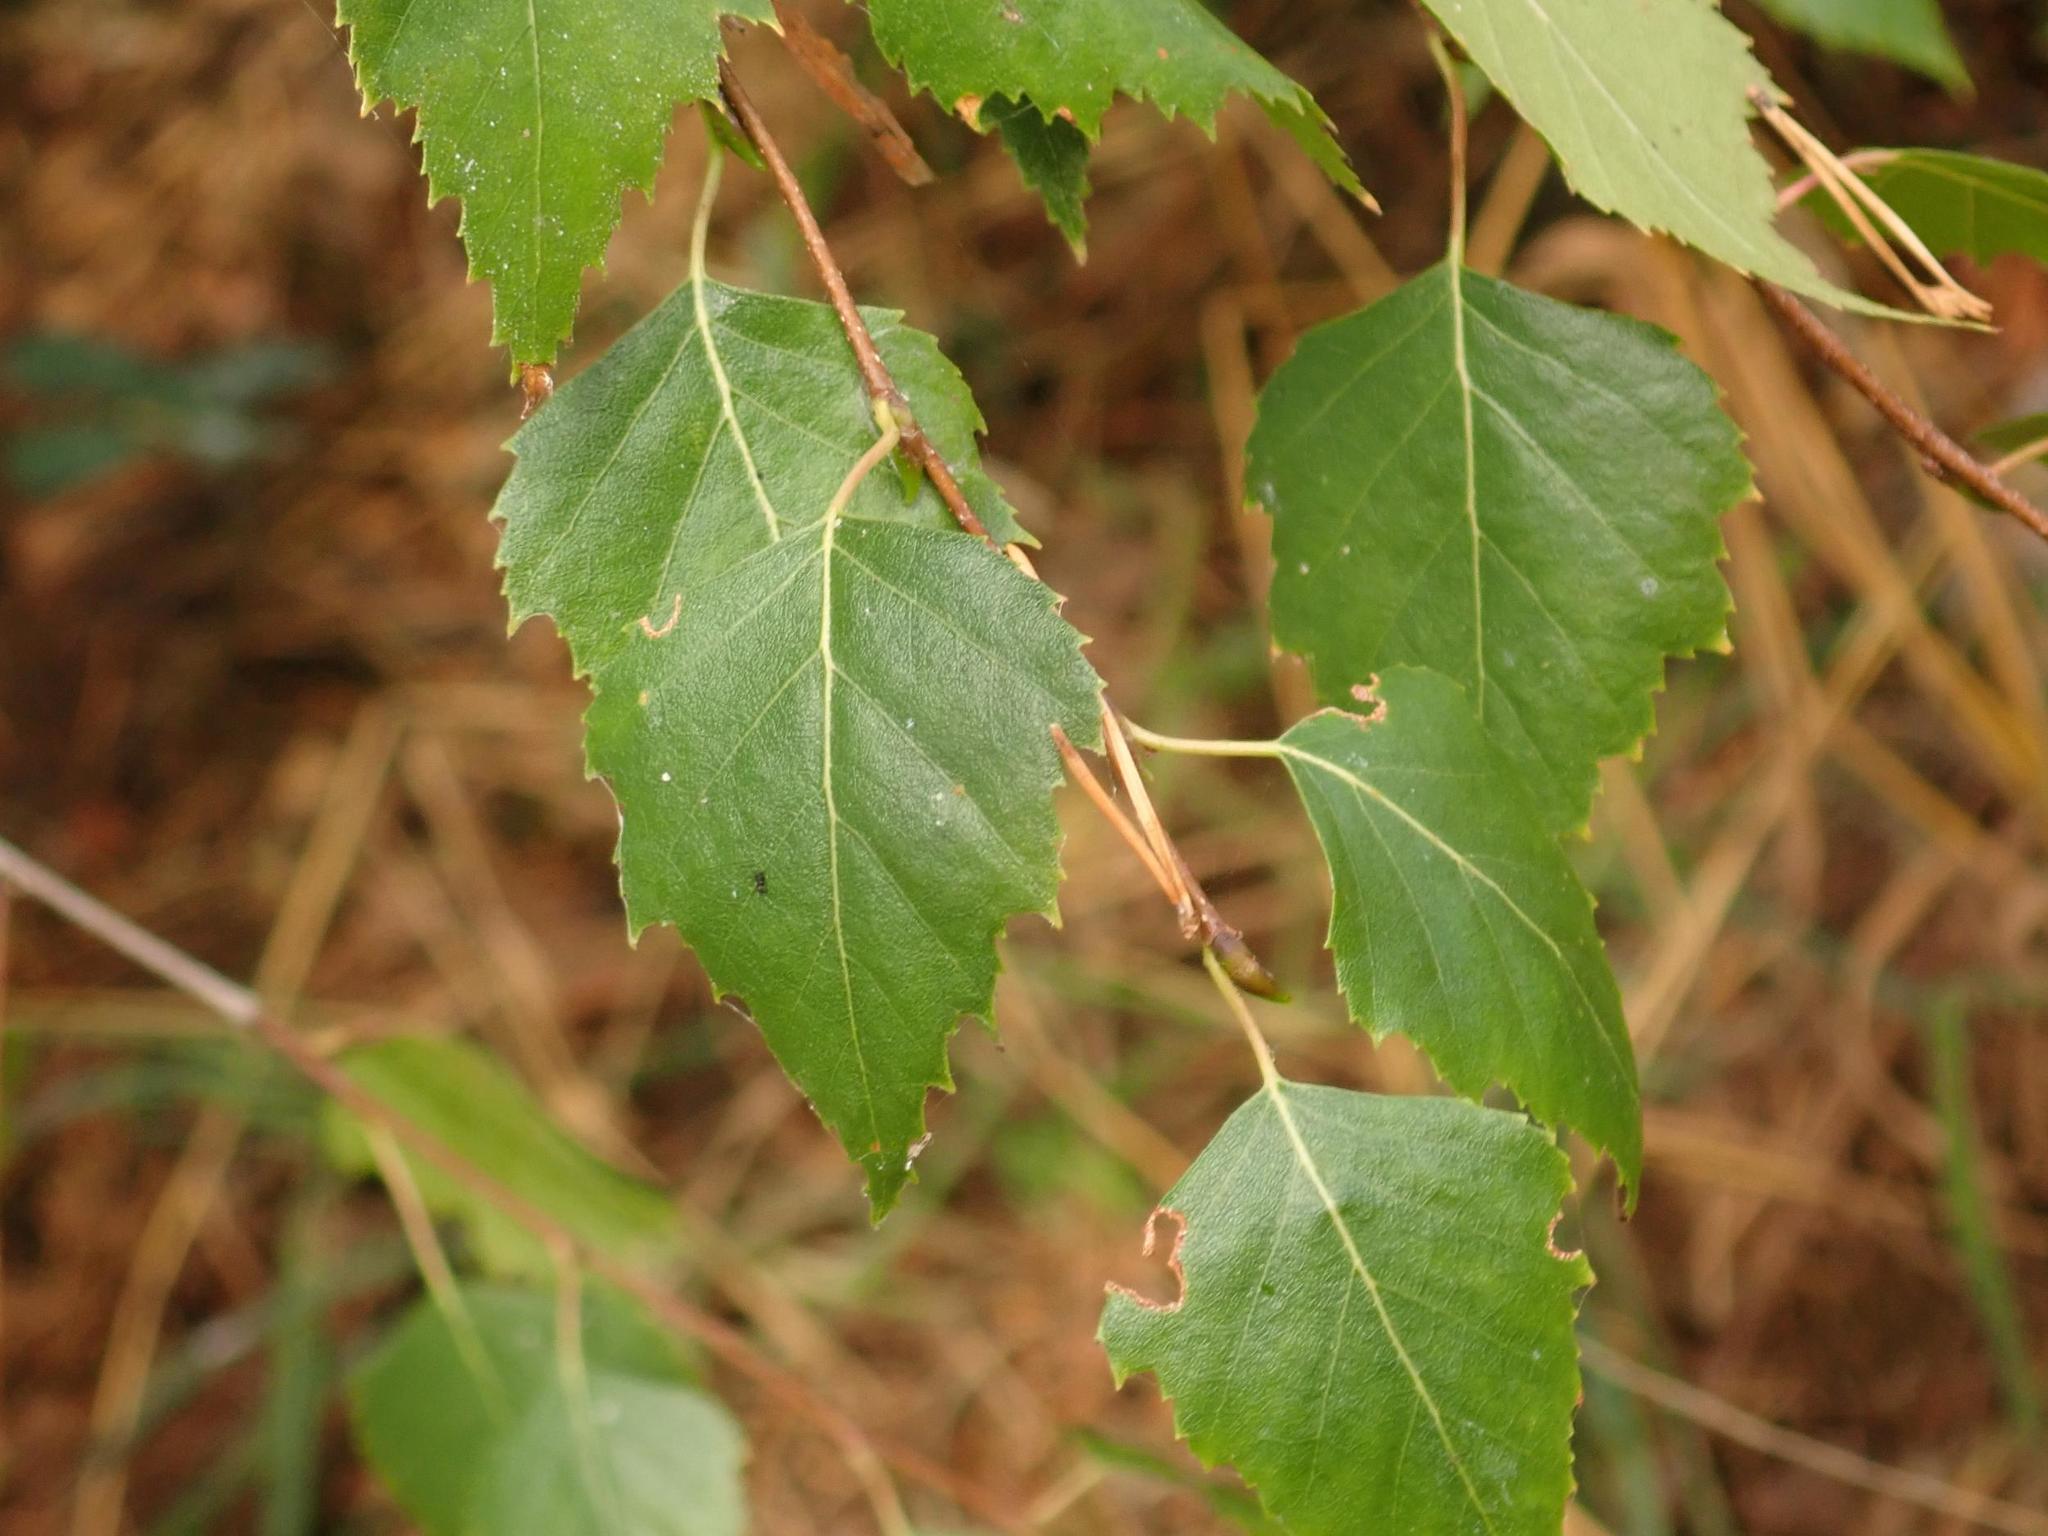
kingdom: Plantae
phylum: Tracheophyta
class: Magnoliopsida
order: Fagales
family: Betulaceae
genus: Betula
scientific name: Betula pendula
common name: Silver birch
